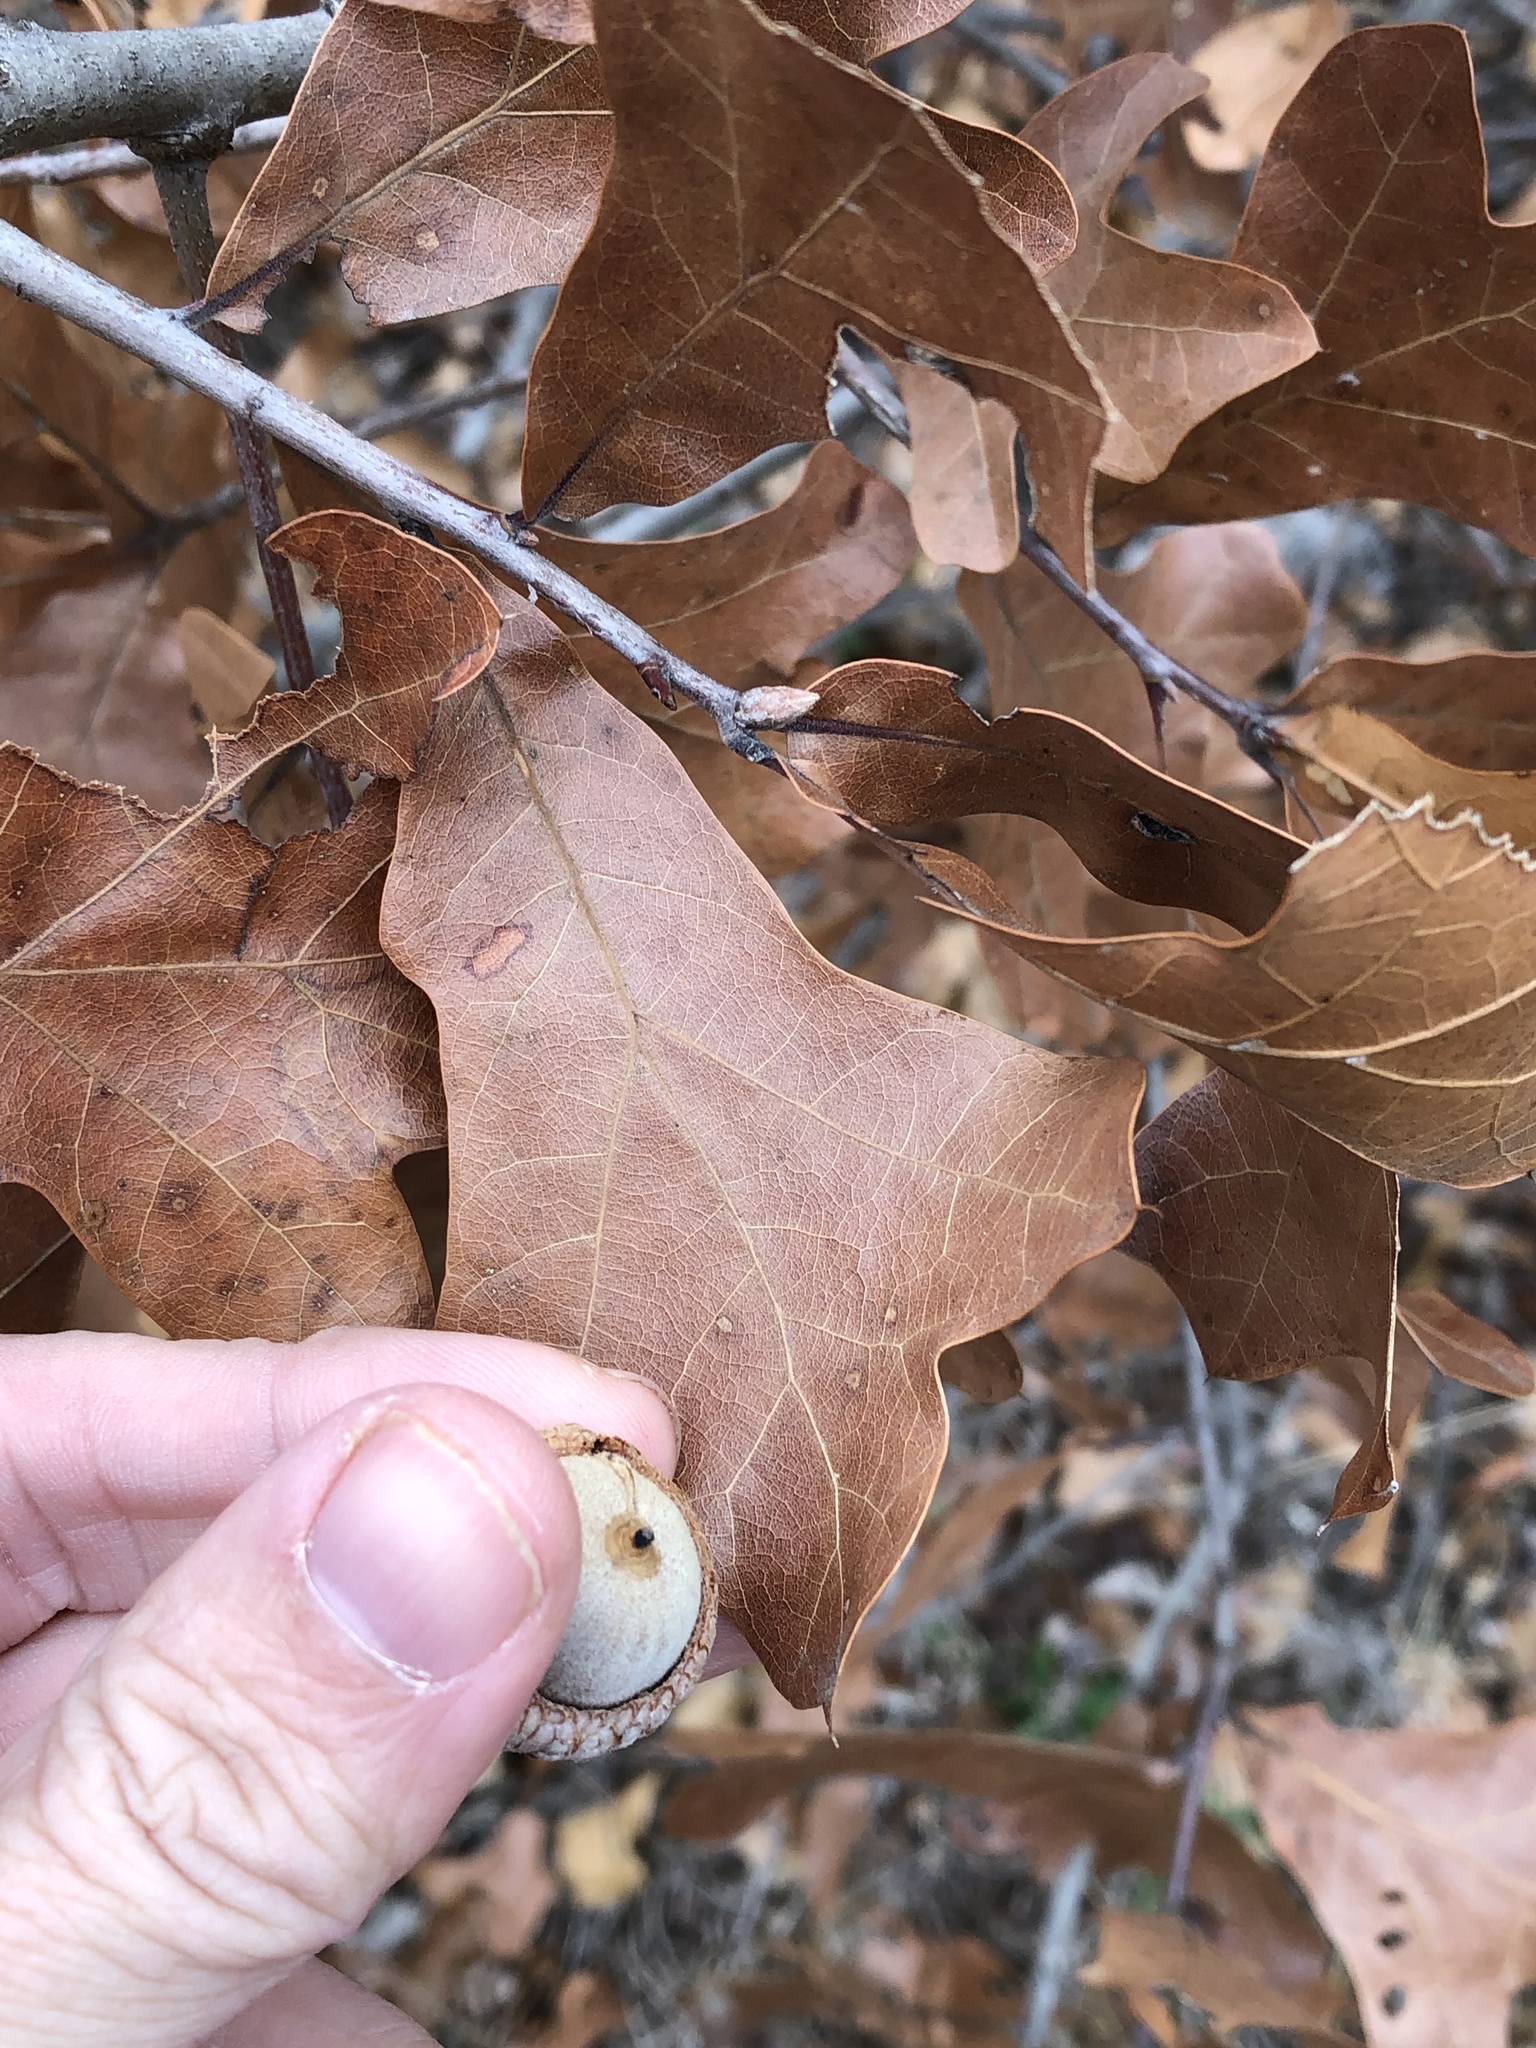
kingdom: Plantae
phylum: Tracheophyta
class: Magnoliopsida
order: Fagales
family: Fagaceae
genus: Quercus
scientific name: Quercus marilandica
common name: Blackjack oak
